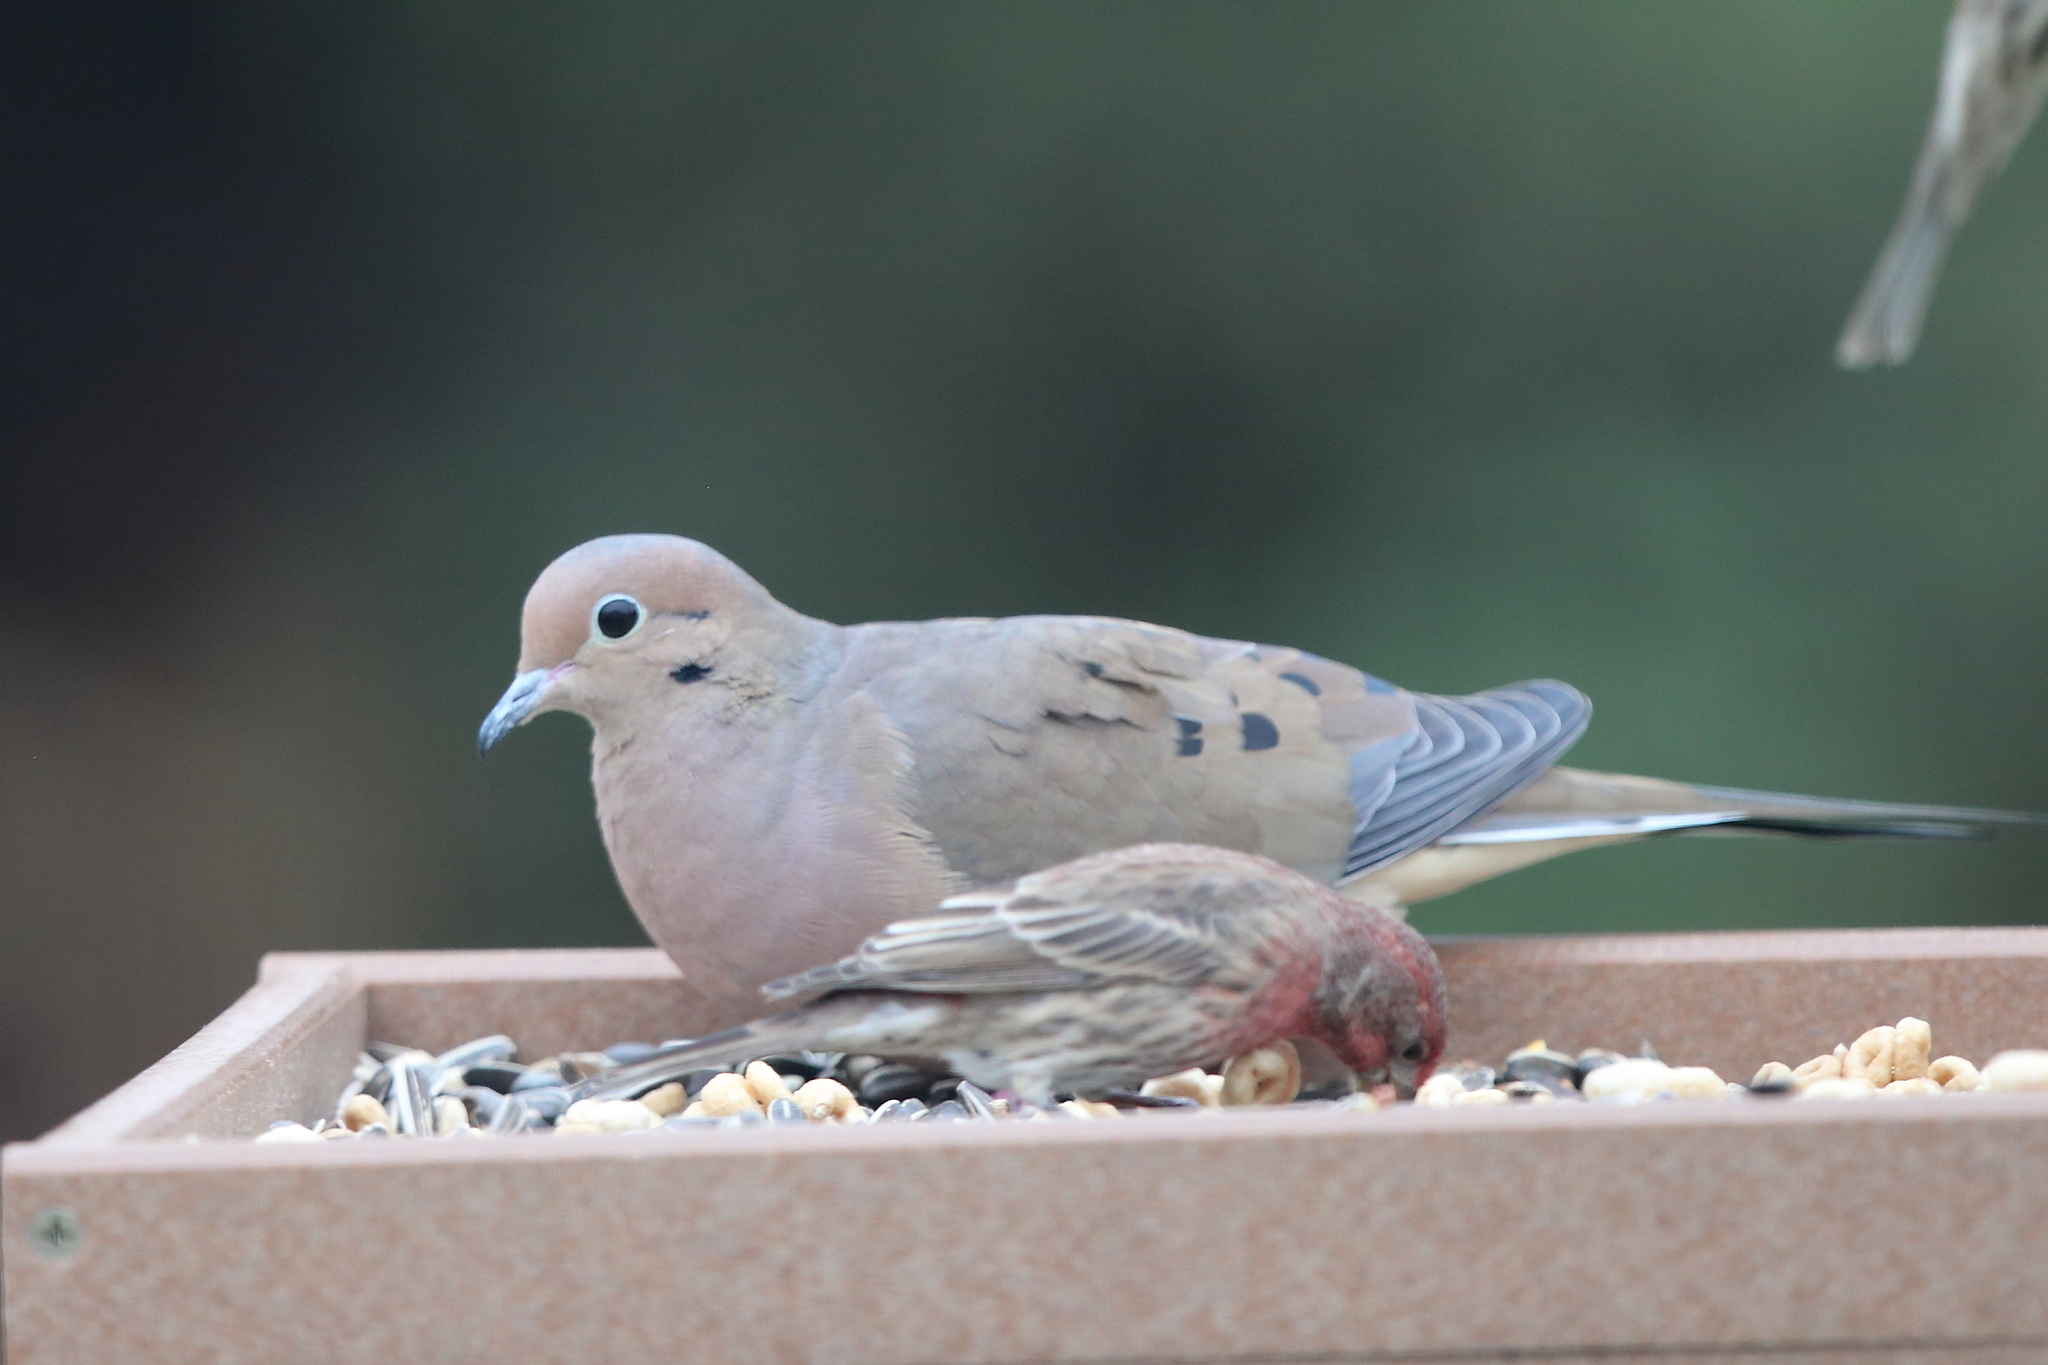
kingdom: Animalia
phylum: Chordata
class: Aves
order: Columbiformes
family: Columbidae
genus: Zenaida
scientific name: Zenaida macroura
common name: Mourning dove
